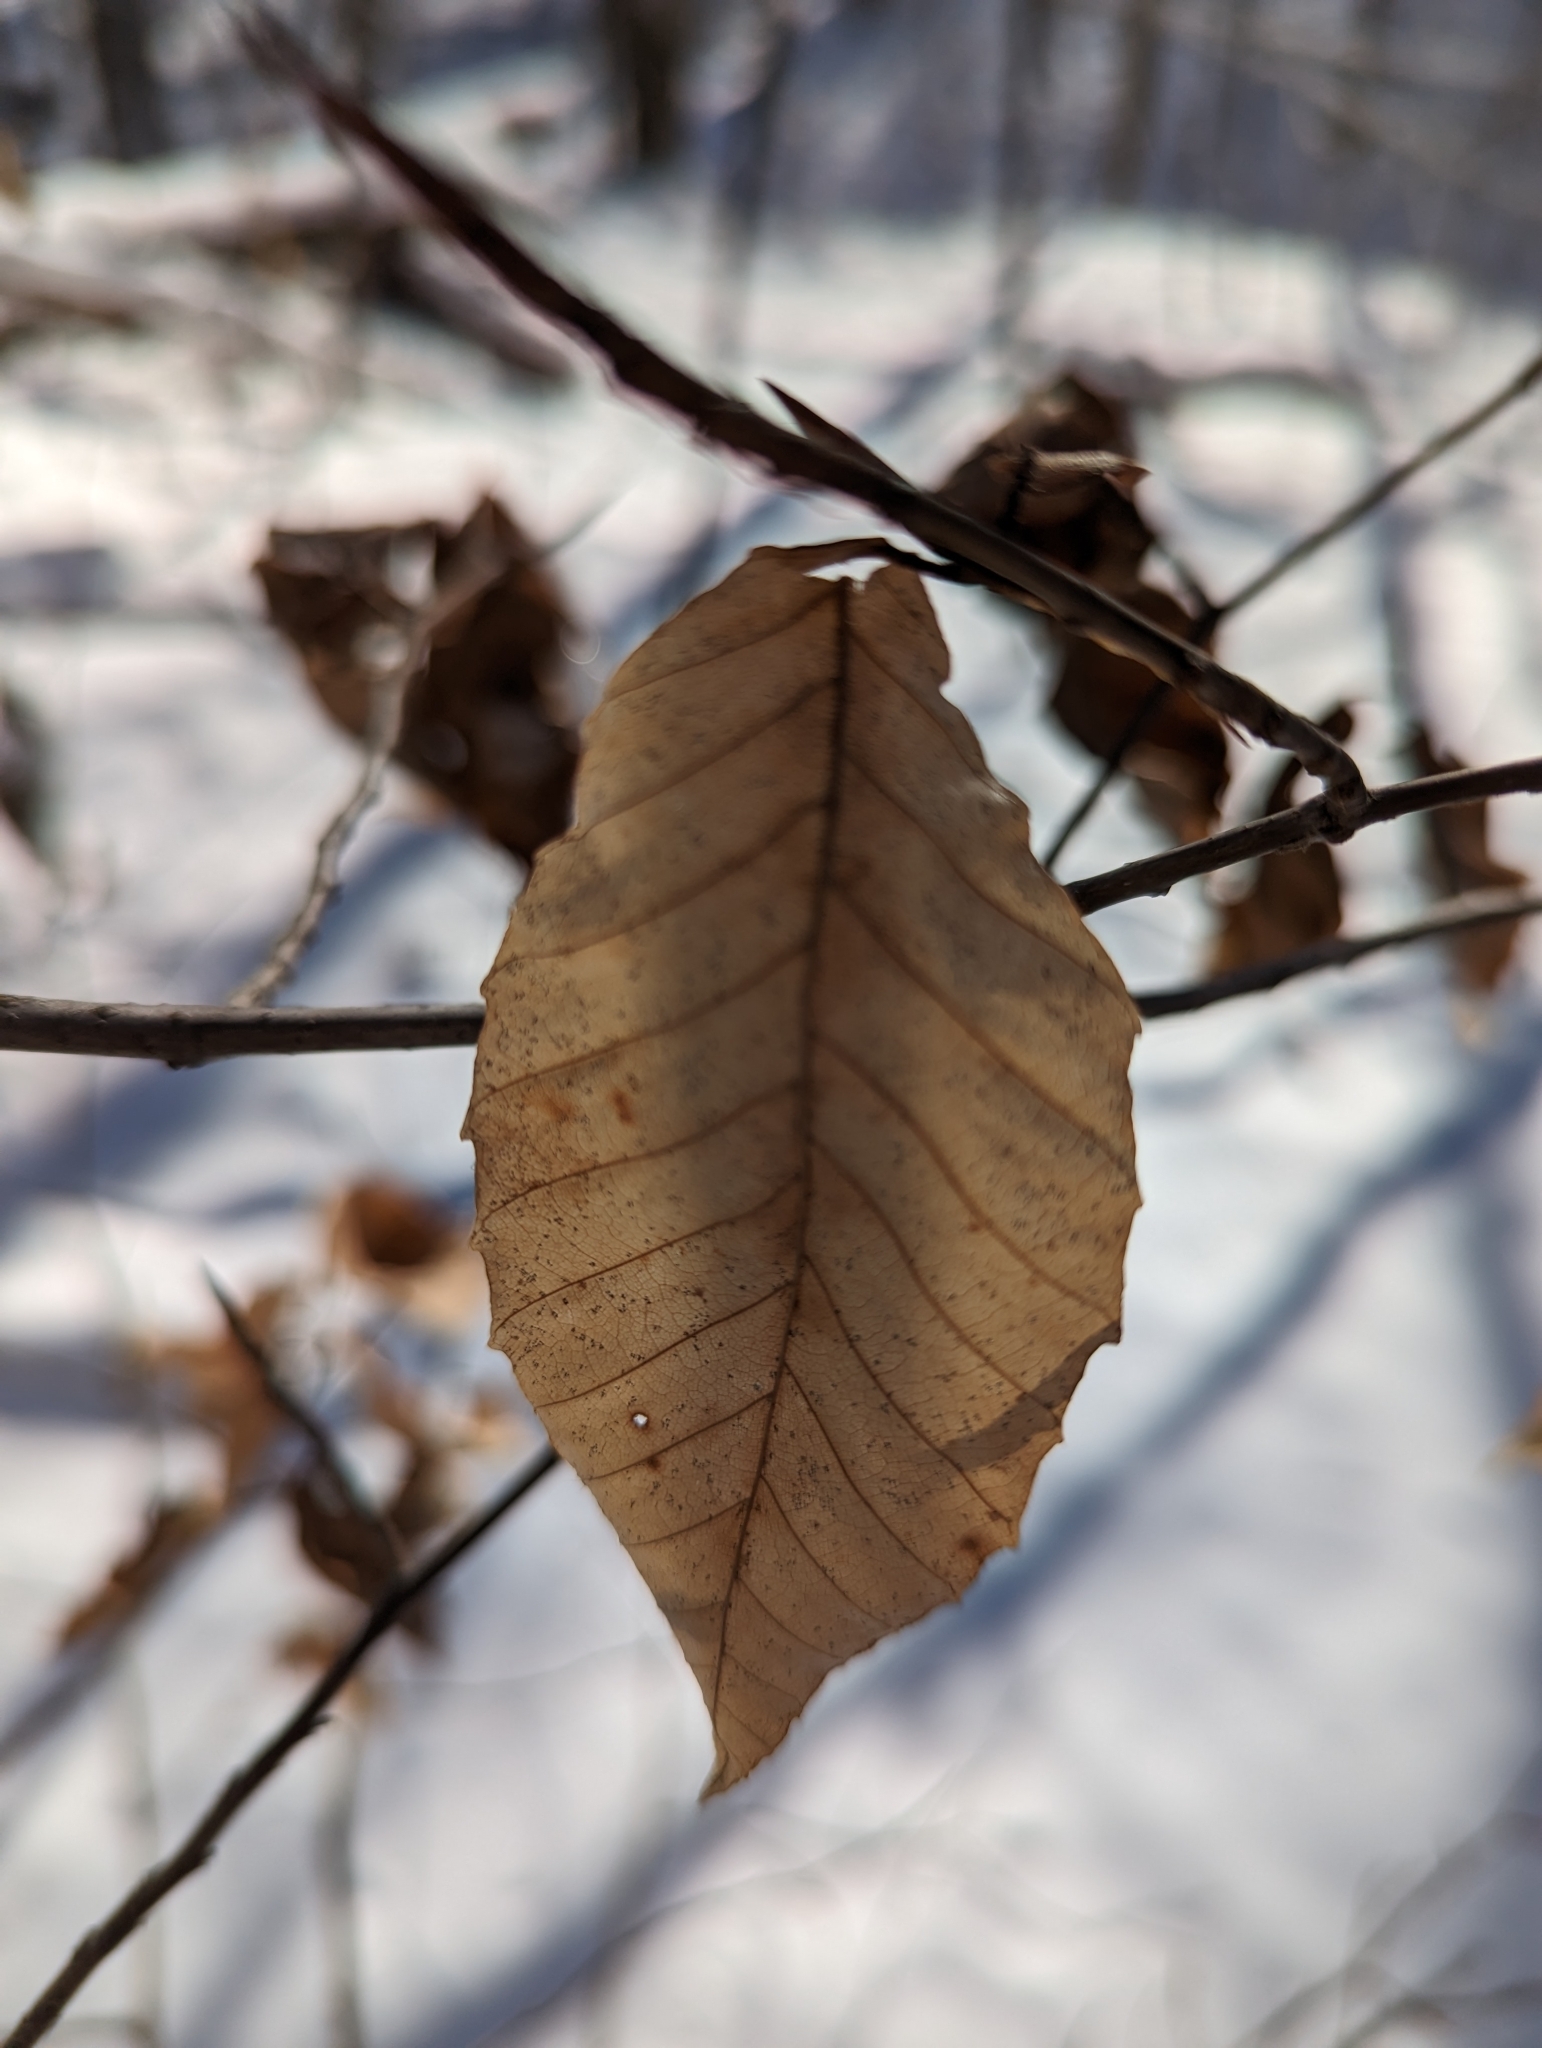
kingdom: Plantae
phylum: Tracheophyta
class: Magnoliopsida
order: Fagales
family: Fagaceae
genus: Fagus
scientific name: Fagus grandifolia
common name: American beech
